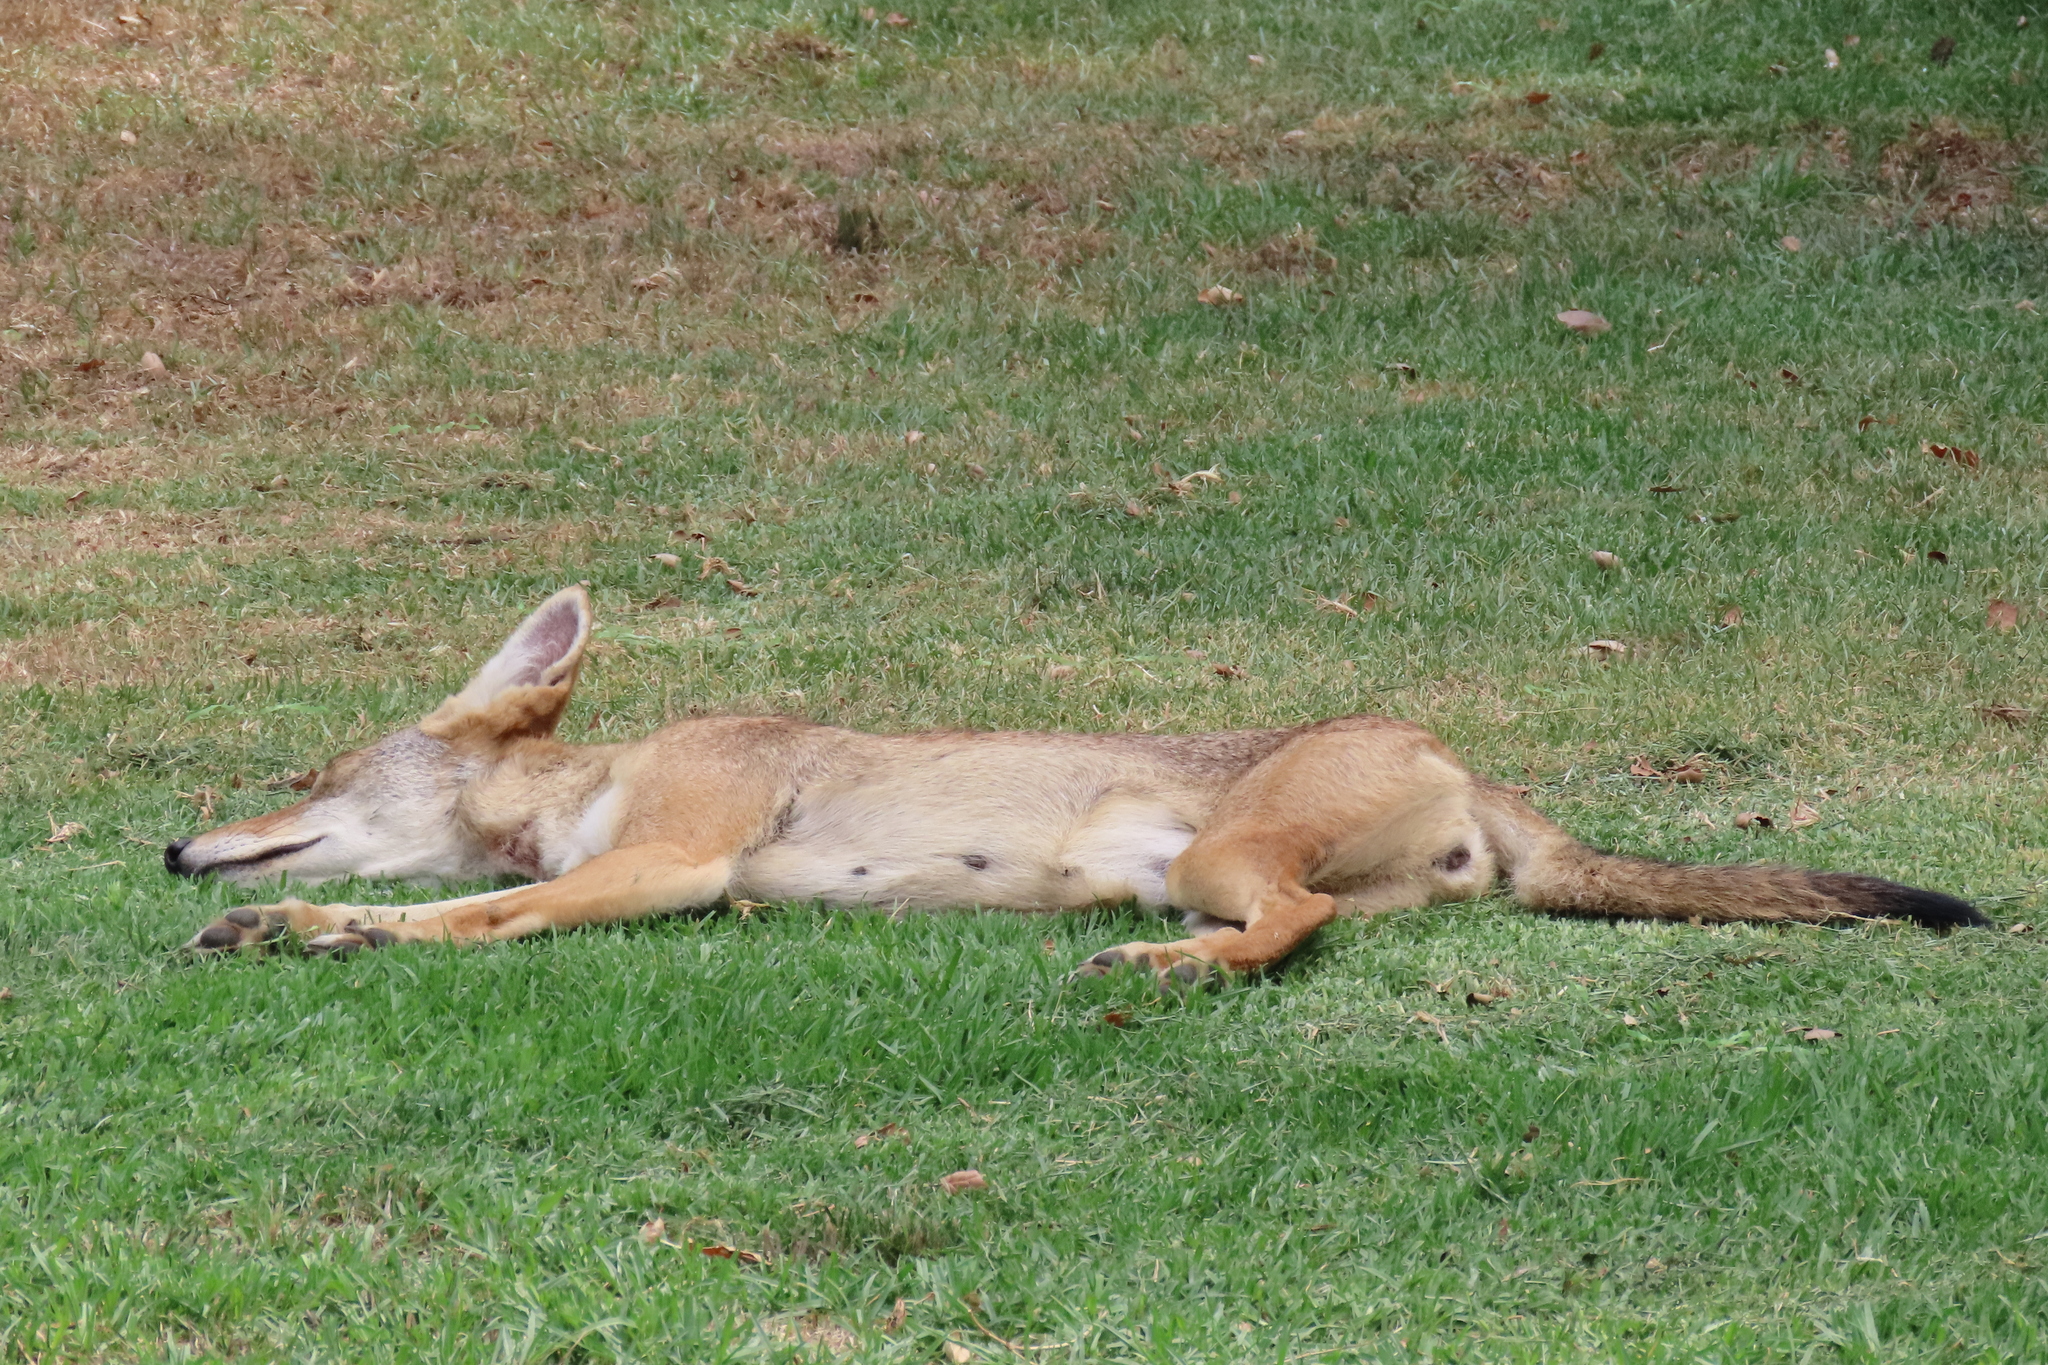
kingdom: Animalia
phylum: Chordata
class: Mammalia
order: Carnivora
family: Canidae
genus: Canis
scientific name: Canis latrans
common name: Coyote
